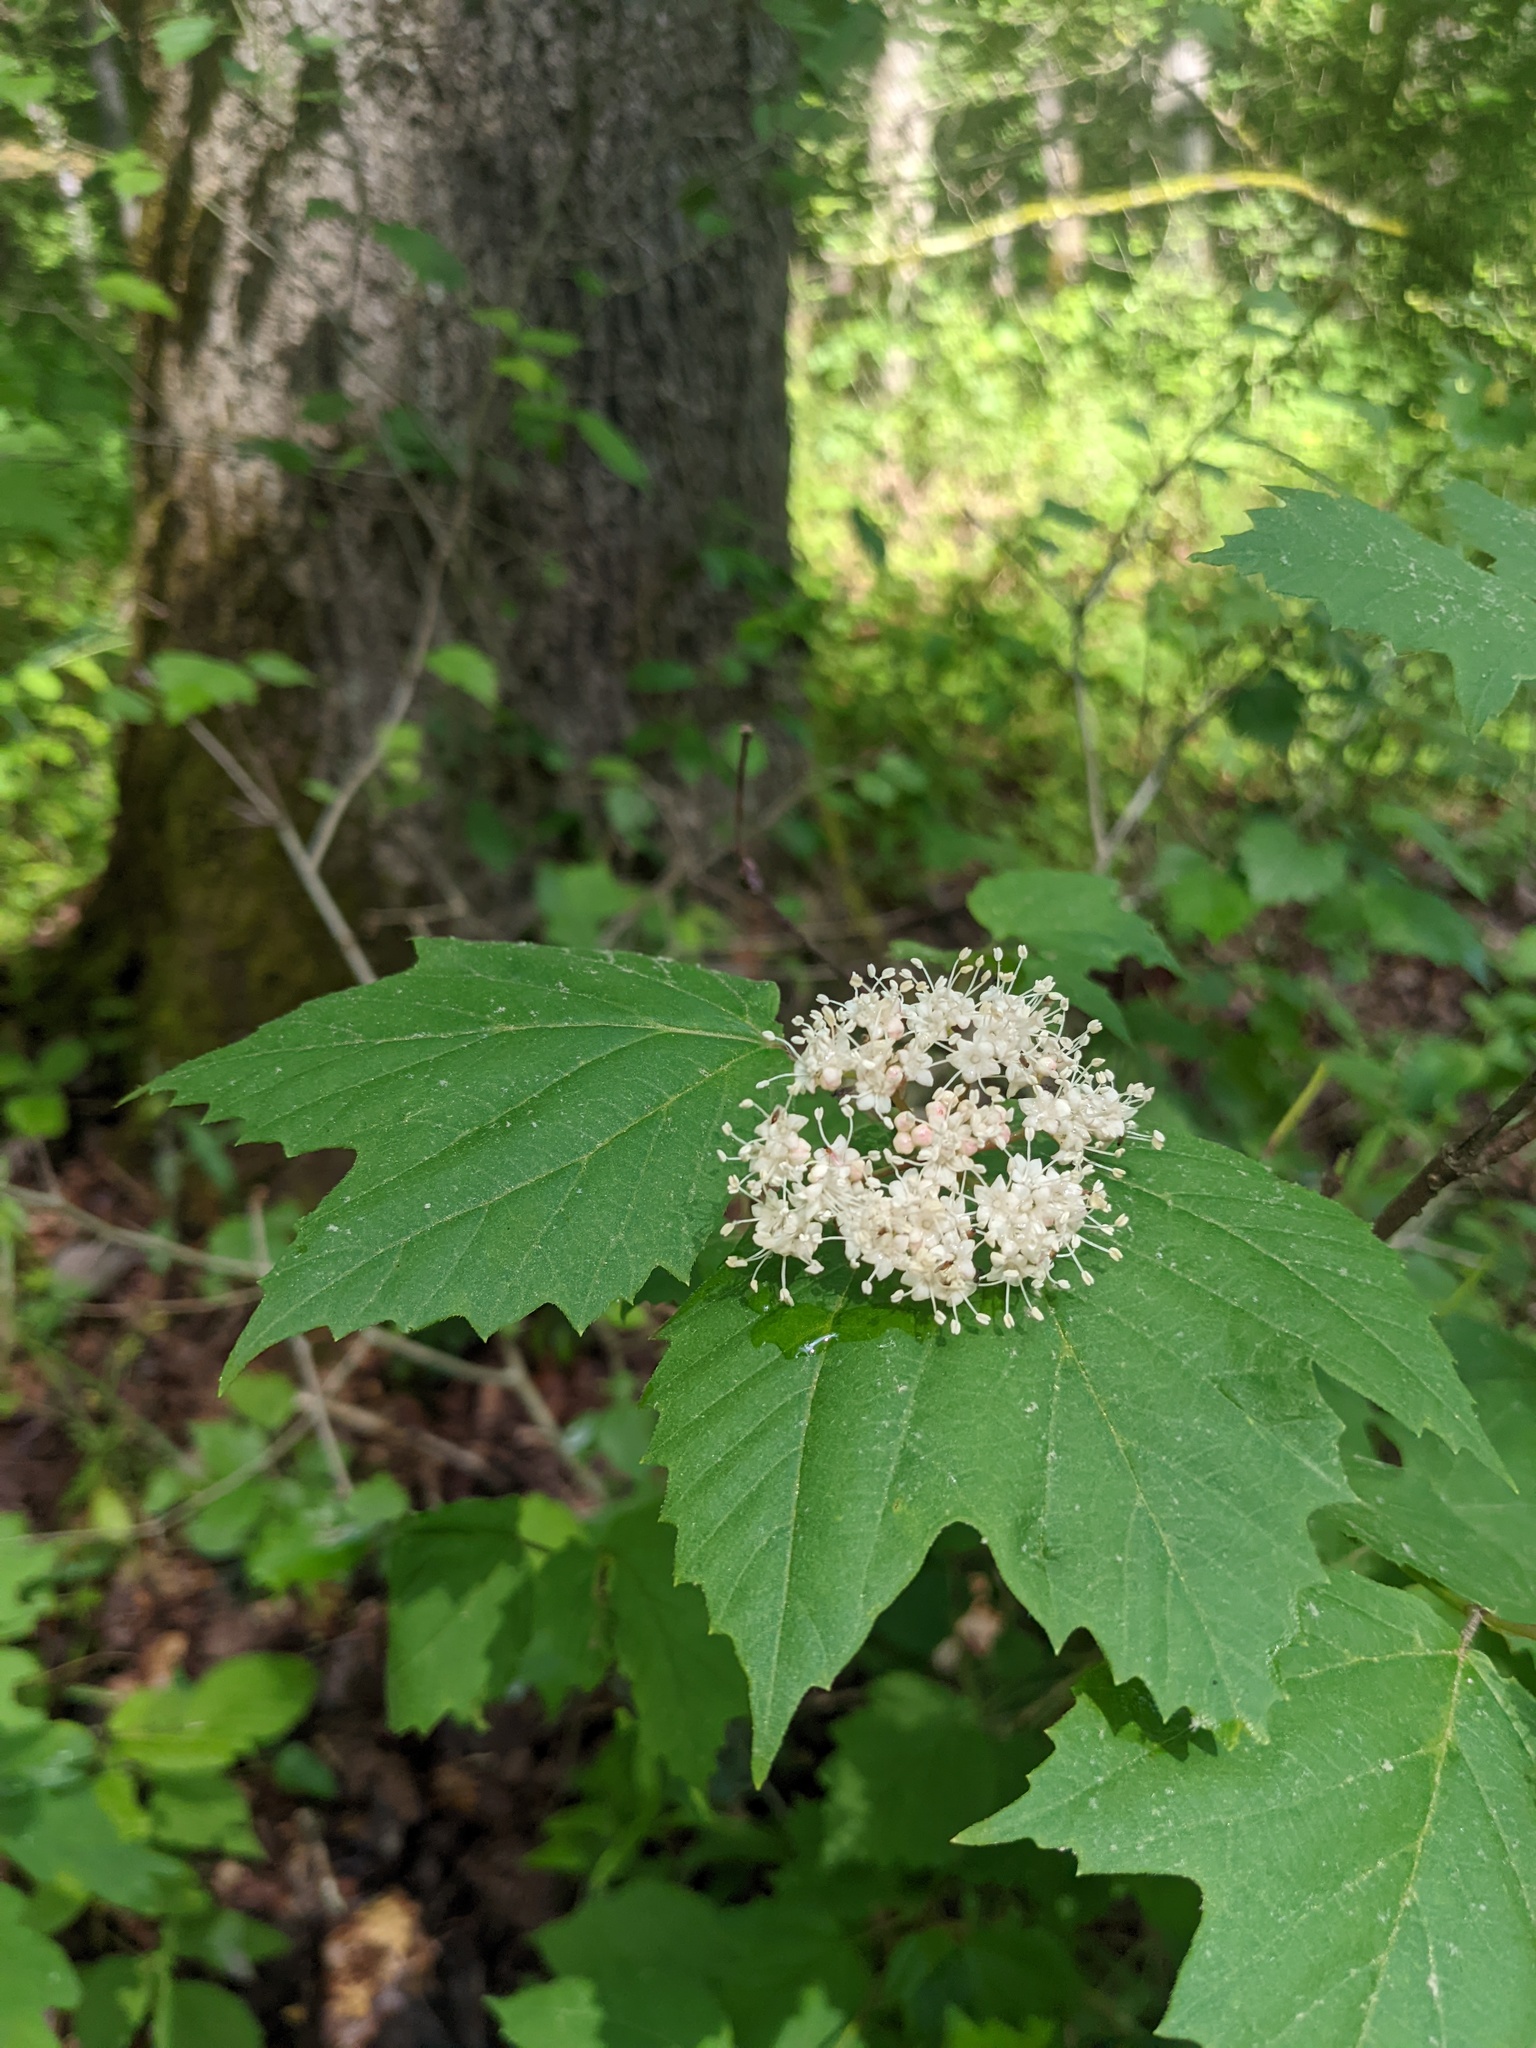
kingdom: Plantae
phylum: Tracheophyta
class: Magnoliopsida
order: Dipsacales
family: Viburnaceae
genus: Viburnum
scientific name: Viburnum acerifolium
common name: Dockmackie
